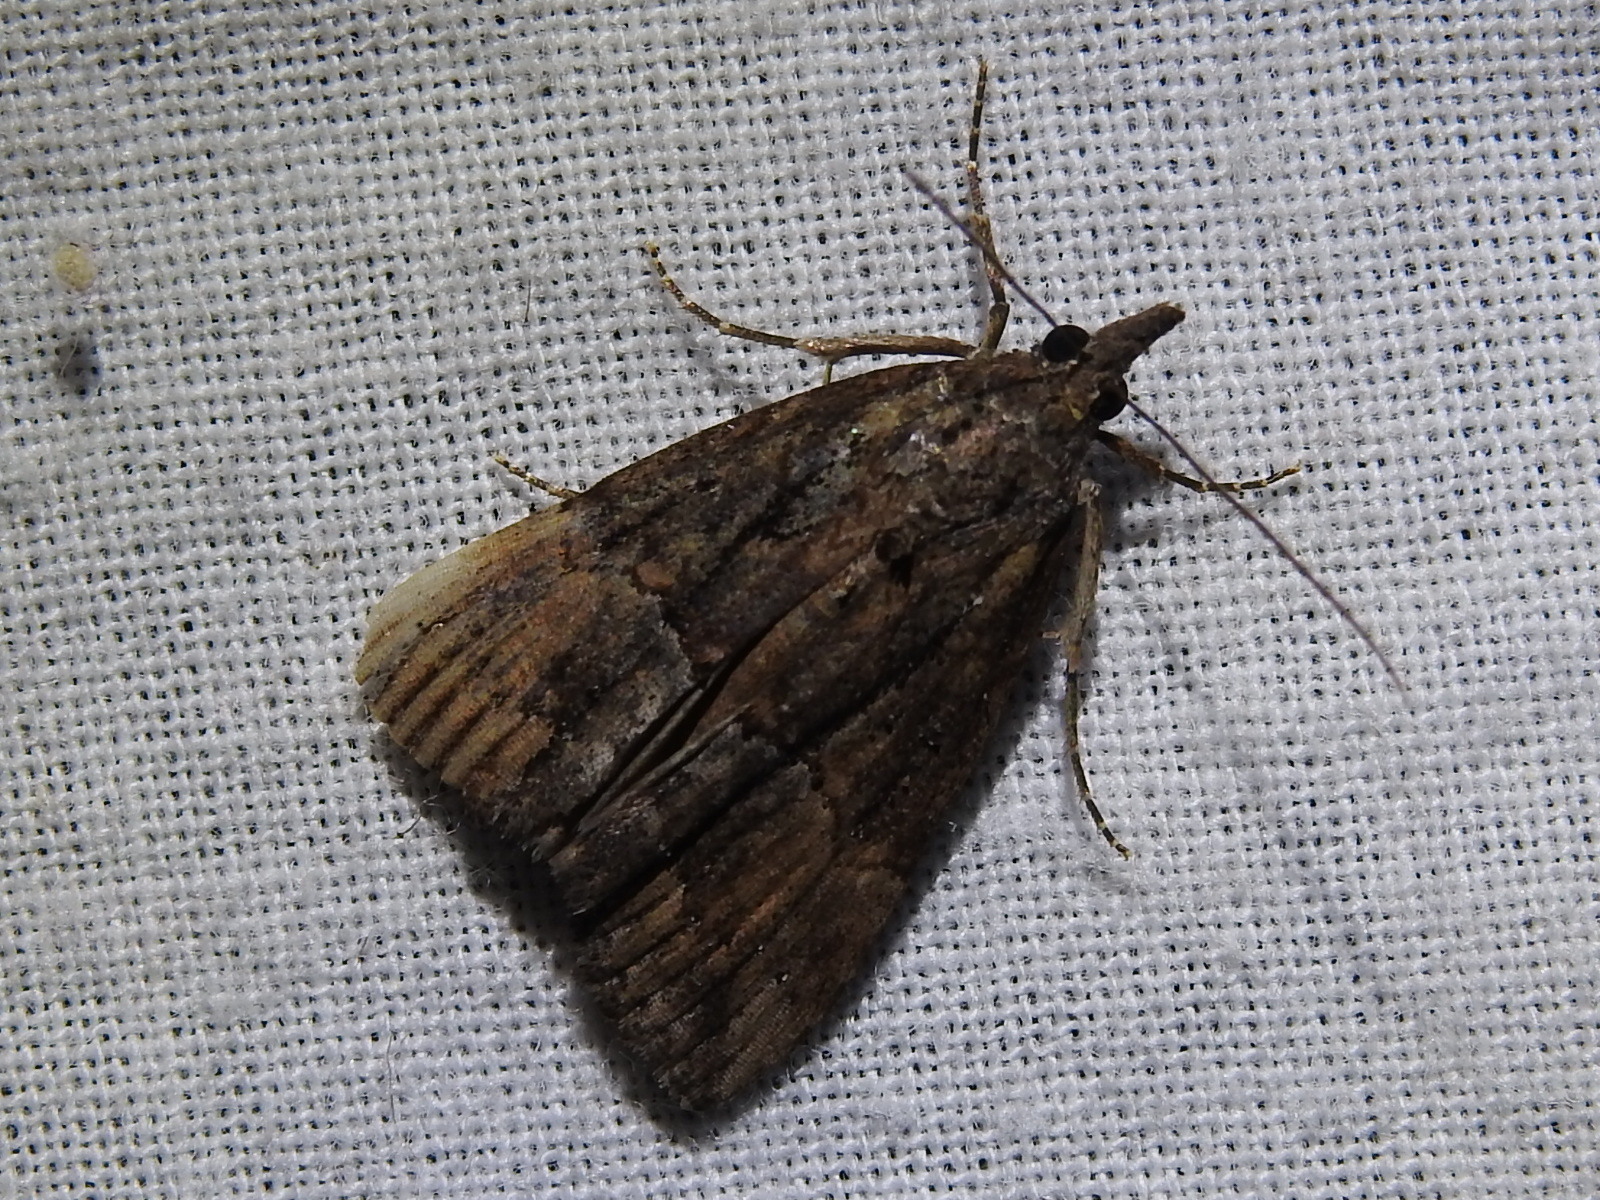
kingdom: Animalia
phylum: Arthropoda
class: Insecta
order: Lepidoptera
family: Erebidae
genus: Hypena
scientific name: Hypena scabra
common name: Green cloverworm
